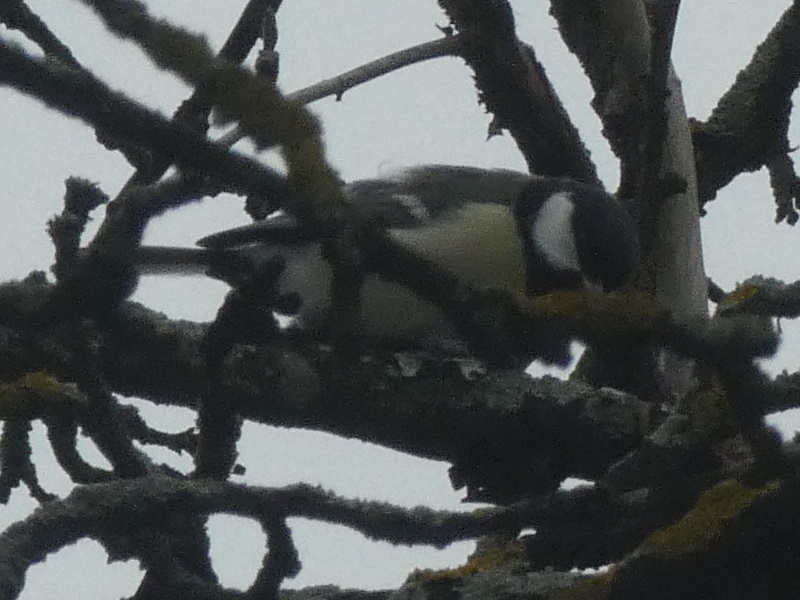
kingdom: Animalia
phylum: Chordata
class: Aves
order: Passeriformes
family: Paridae
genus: Parus
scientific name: Parus major
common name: Great tit
